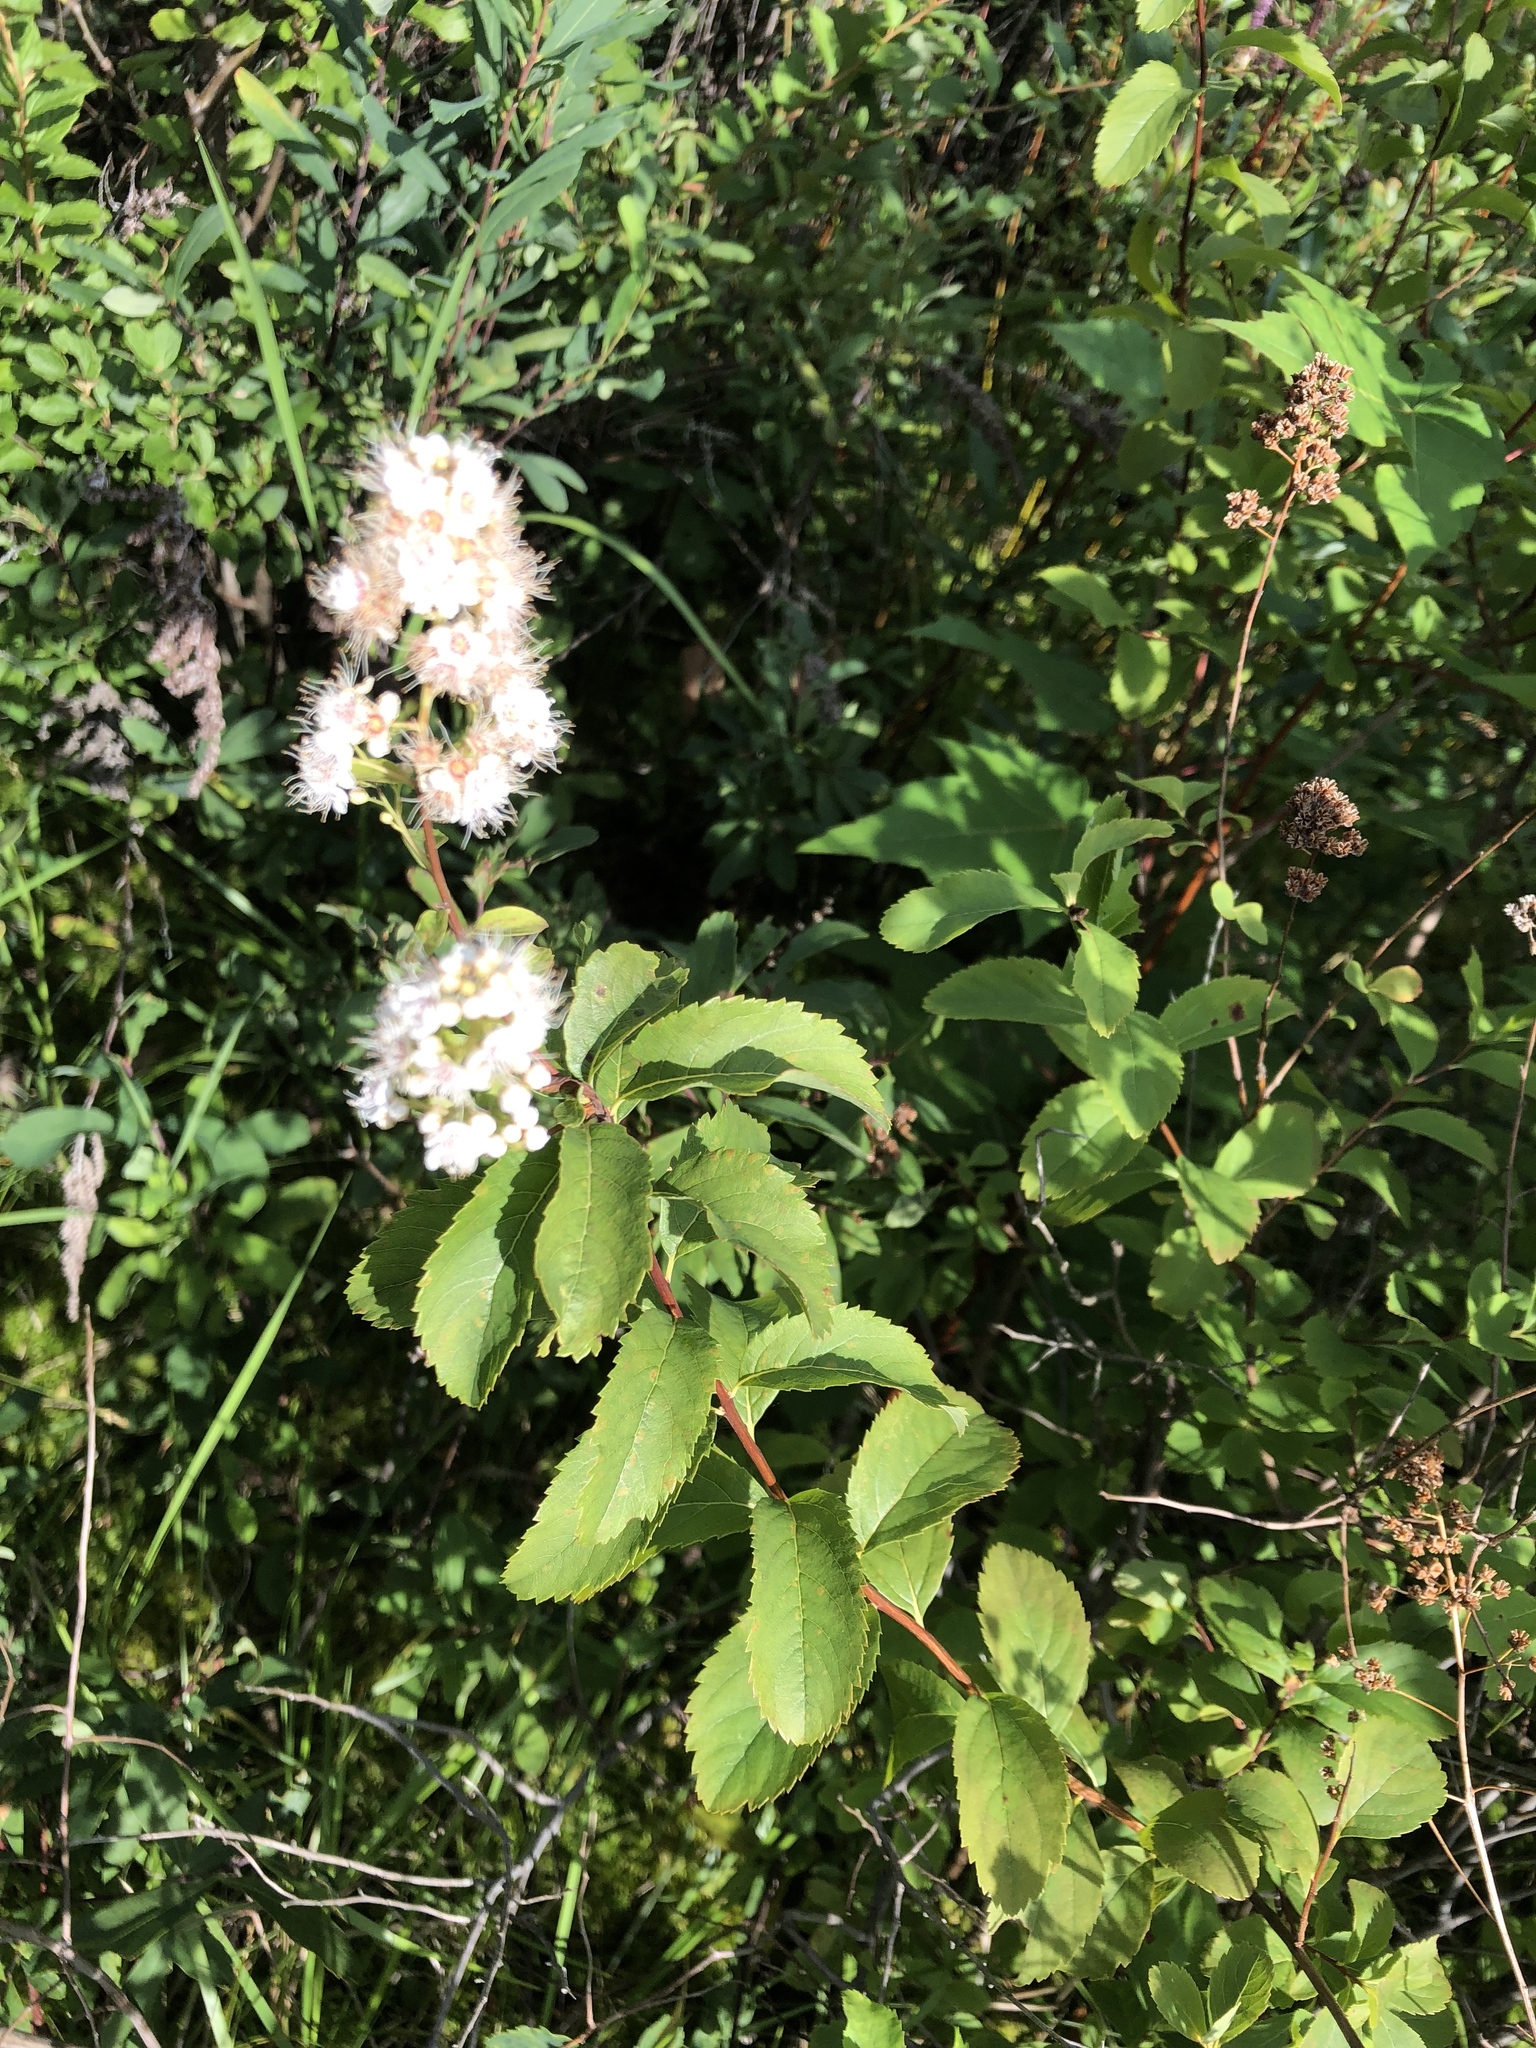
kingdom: Plantae
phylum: Tracheophyta
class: Magnoliopsida
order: Rosales
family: Rosaceae
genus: Spiraea
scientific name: Spiraea alba
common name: Pale bridewort
